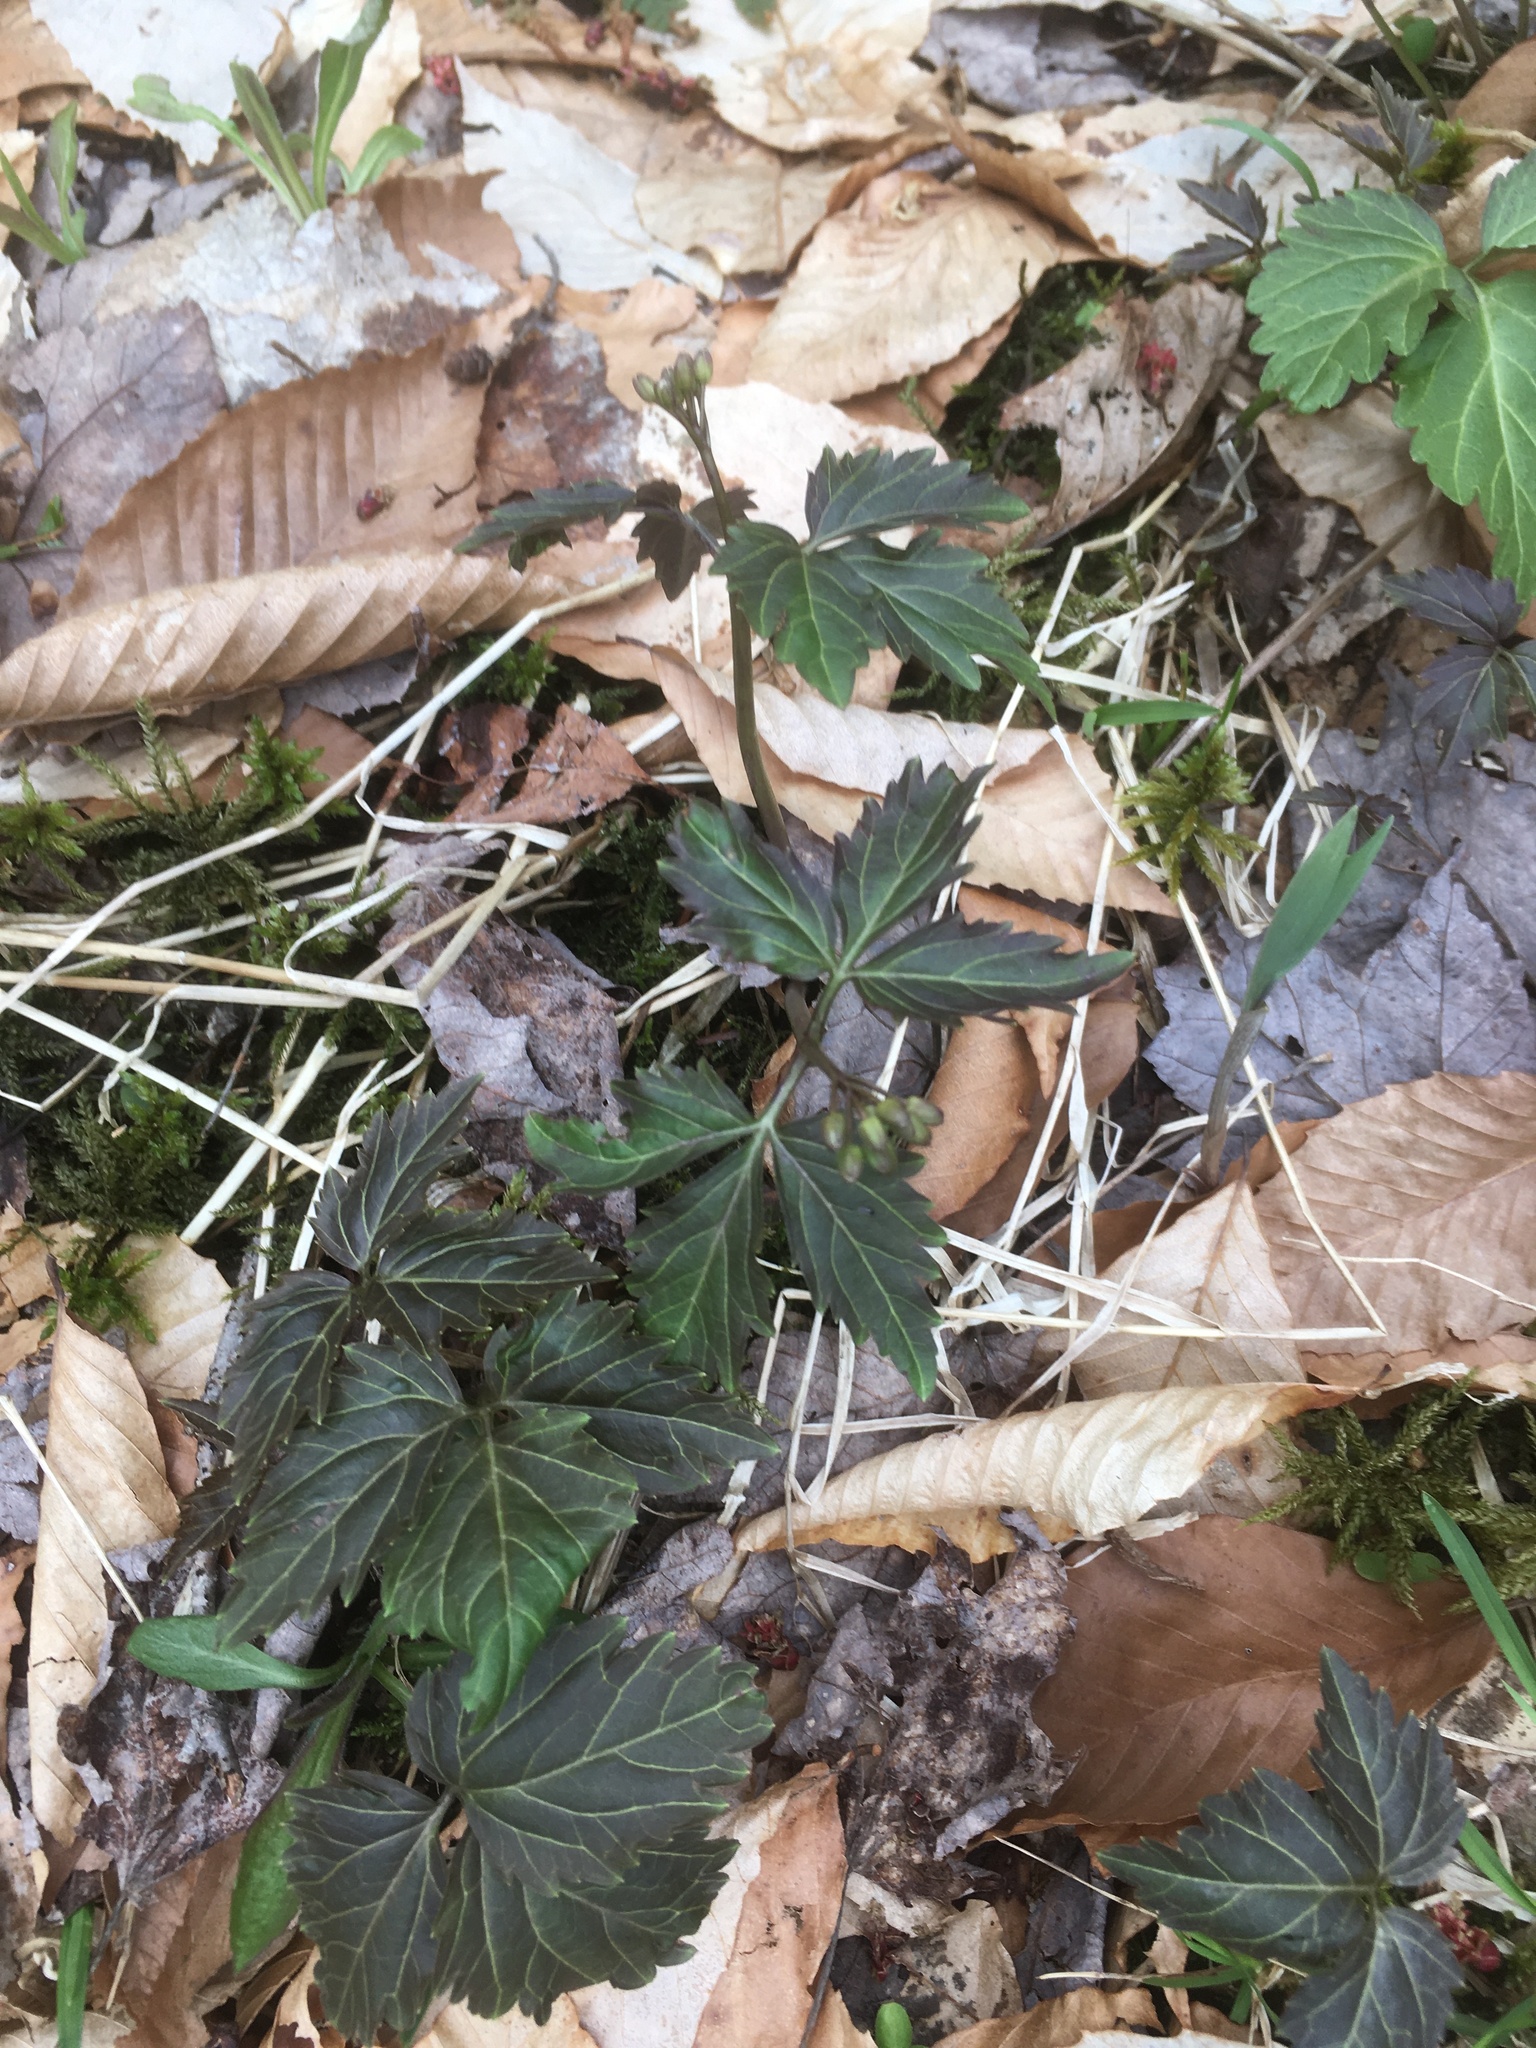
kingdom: Plantae
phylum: Tracheophyta
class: Magnoliopsida
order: Brassicales
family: Brassicaceae
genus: Cardamine
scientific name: Cardamine diphylla
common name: Broad-leaved toothwort
